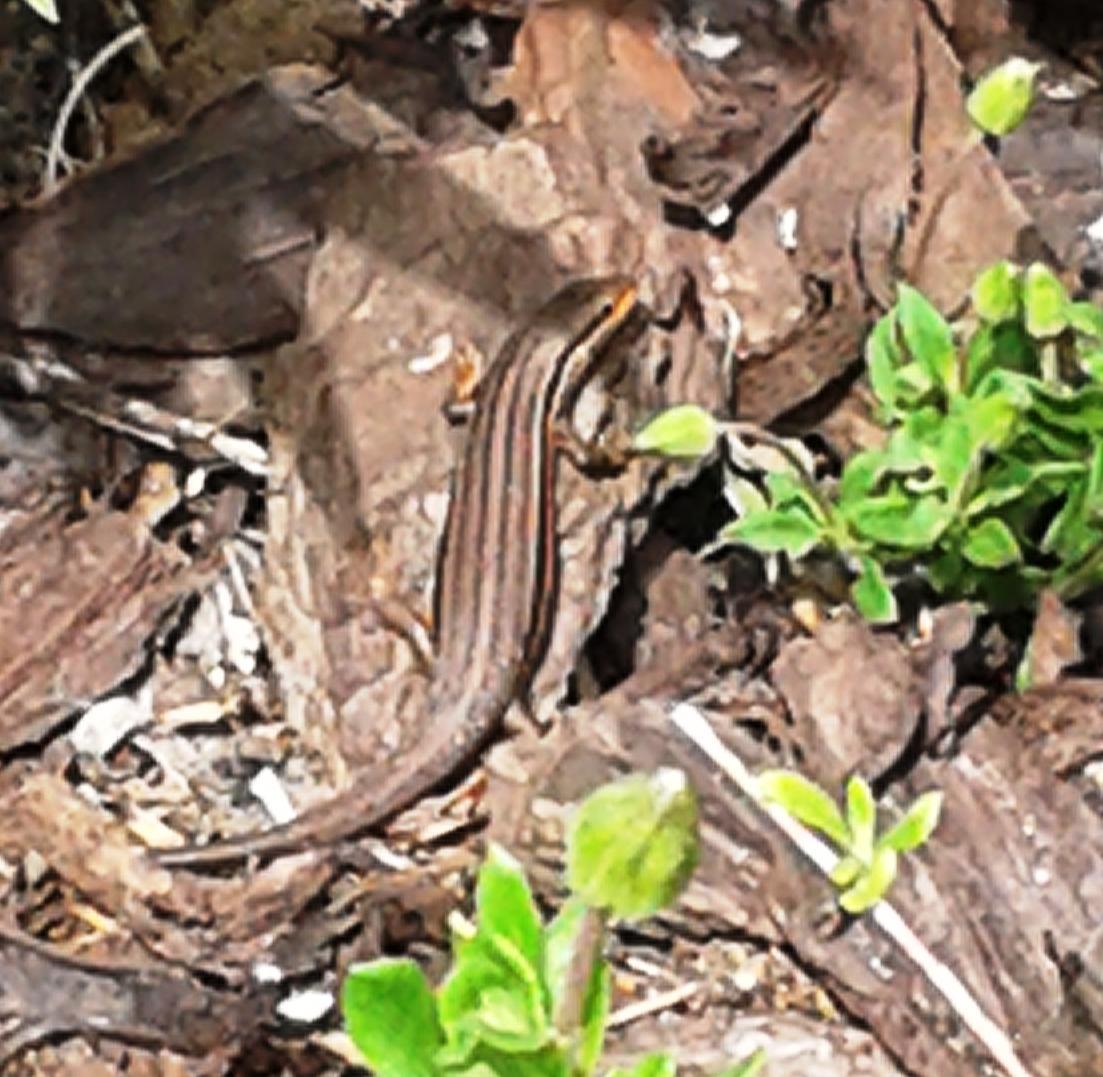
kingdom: Animalia
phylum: Chordata
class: Squamata
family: Scincidae
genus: Trachylepis
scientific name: Trachylepis homalocephala
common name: Red-sided skink
